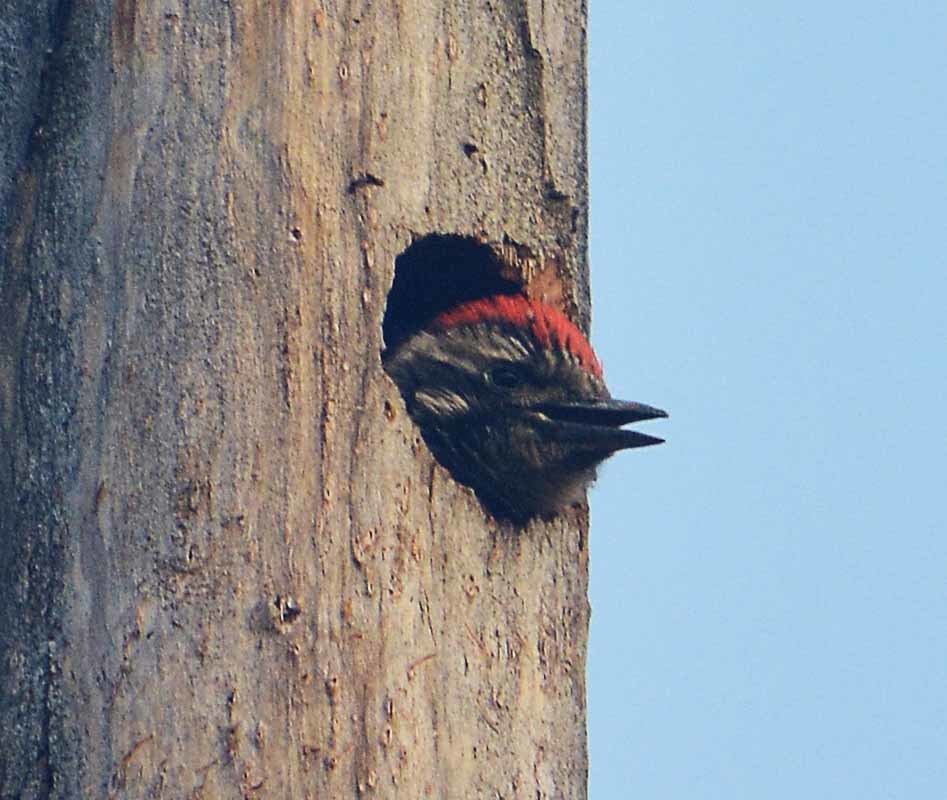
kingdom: Animalia
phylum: Chordata
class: Aves
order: Piciformes
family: Picidae
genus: Dryobates
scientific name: Dryobates scalaris
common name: Ladder-backed woodpecker
